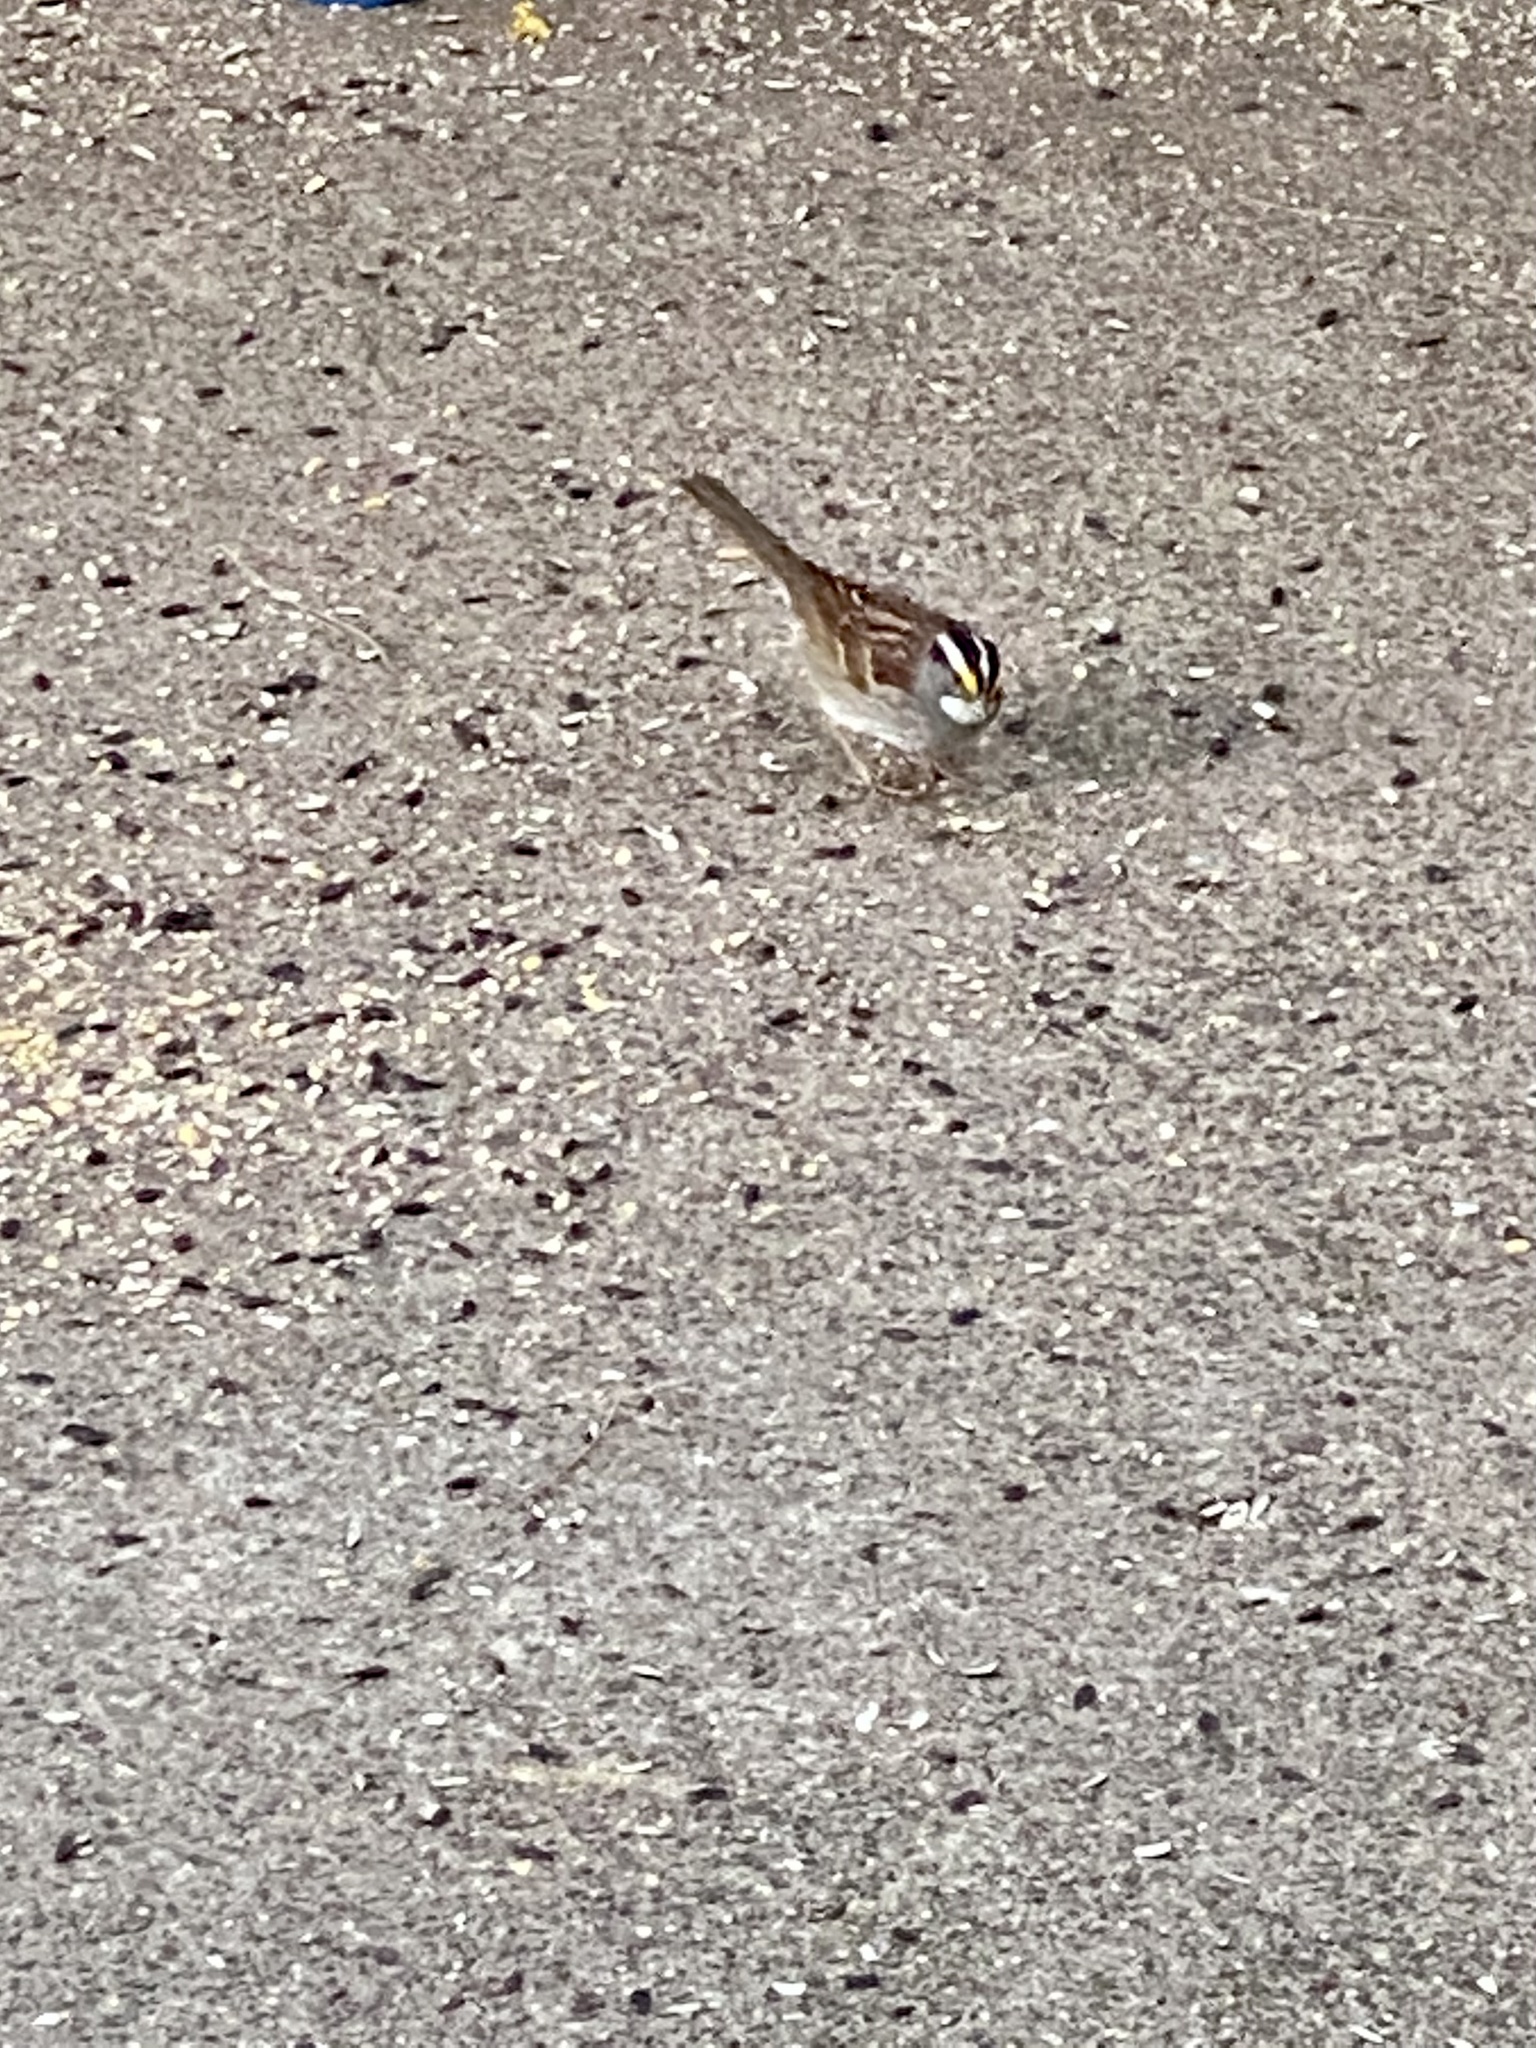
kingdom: Animalia
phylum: Chordata
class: Aves
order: Passeriformes
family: Passerellidae
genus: Zonotrichia
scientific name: Zonotrichia albicollis
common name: White-throated sparrow
